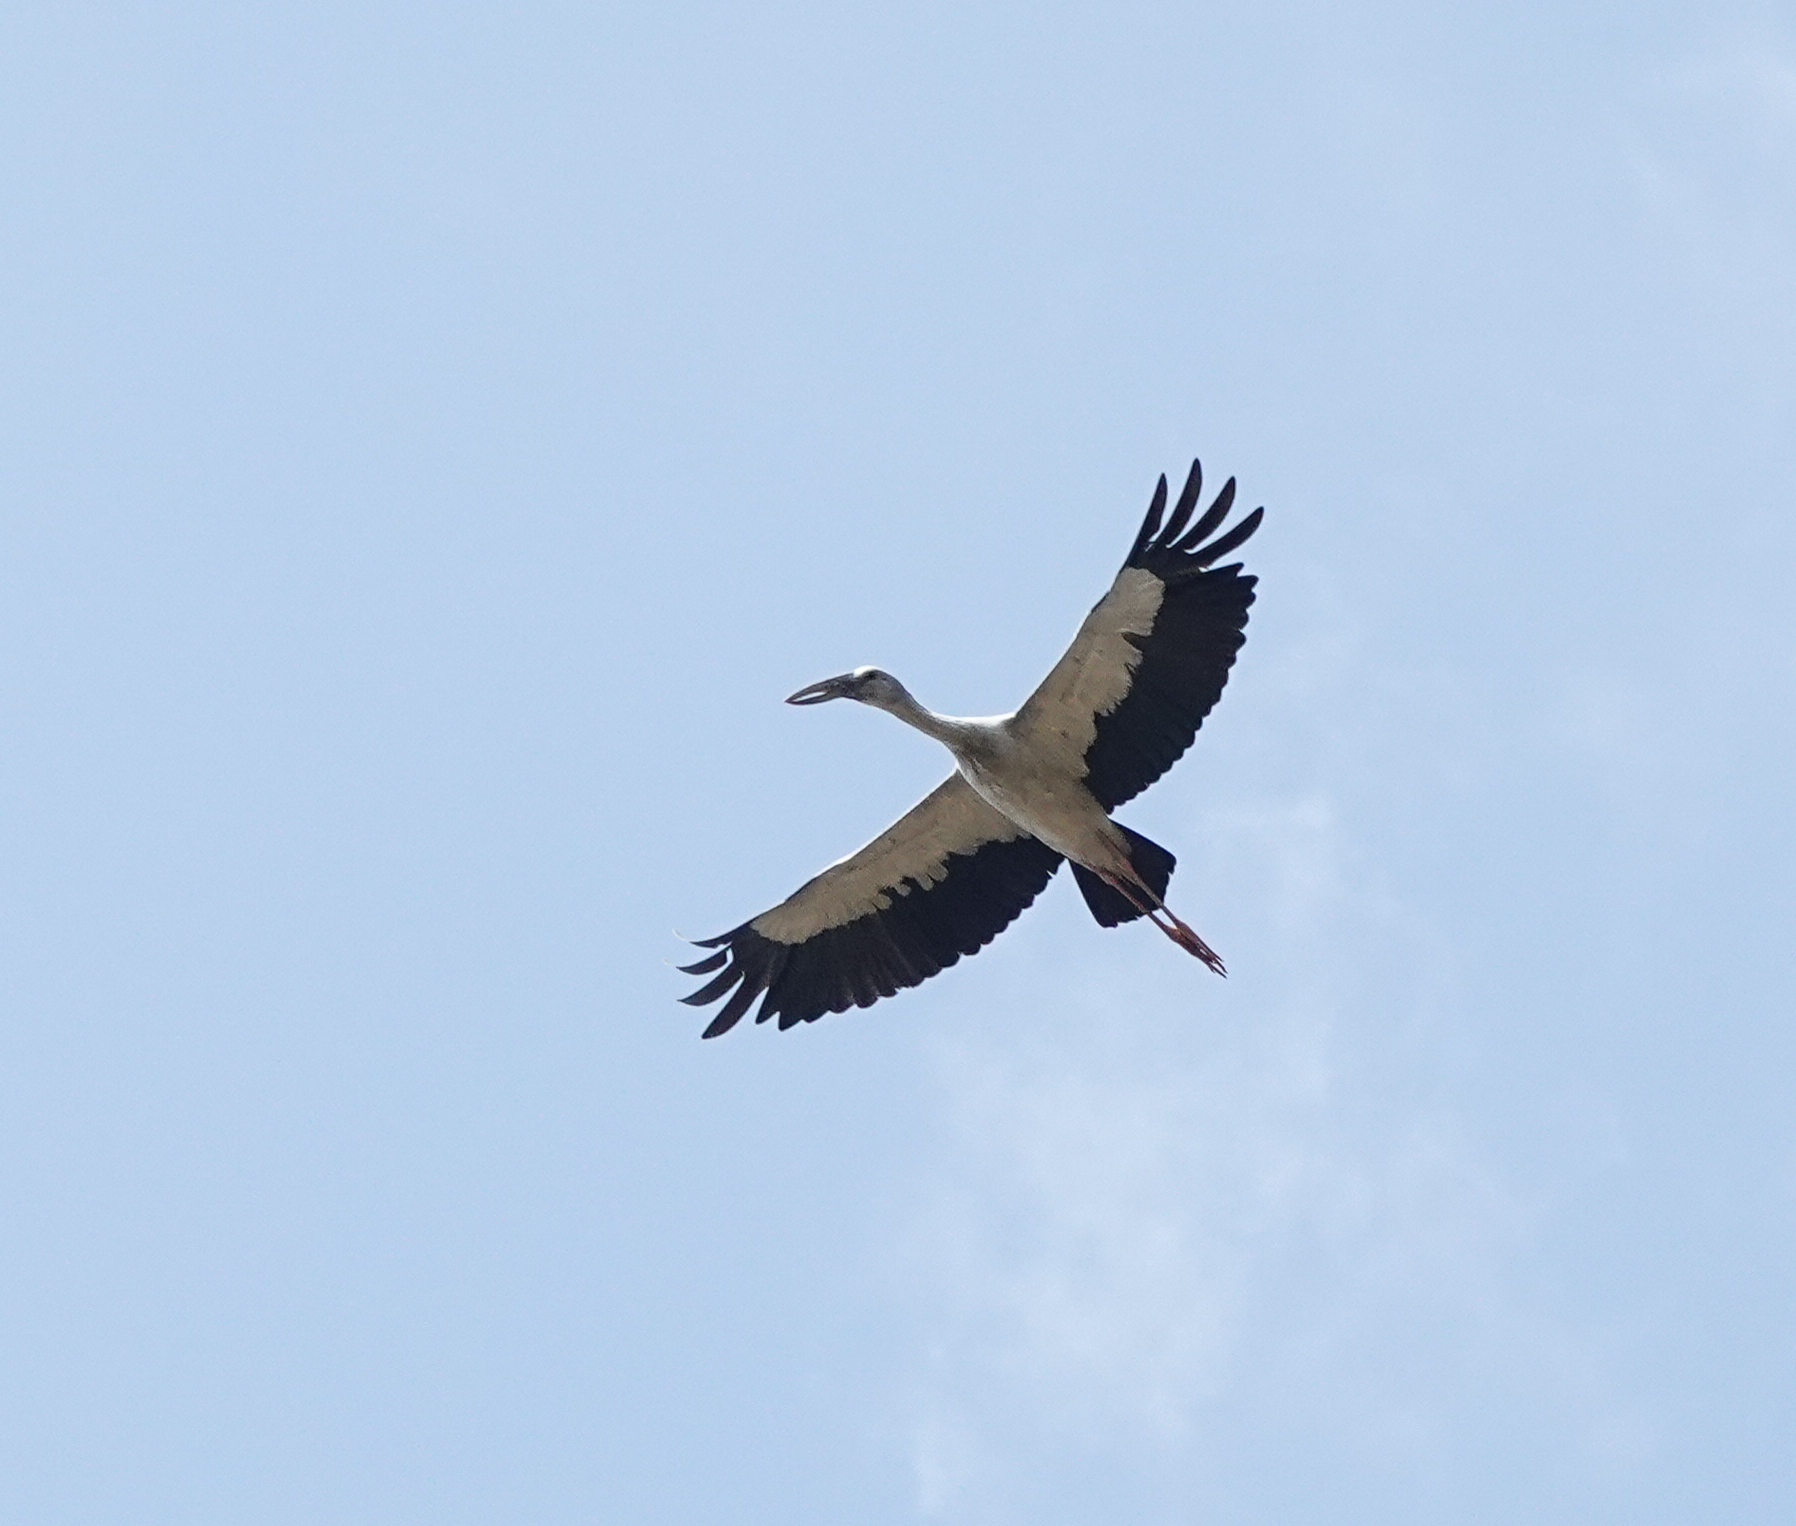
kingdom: Animalia
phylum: Chordata
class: Aves
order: Ciconiiformes
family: Ciconiidae
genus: Anastomus
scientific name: Anastomus oscitans
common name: Asian openbill
